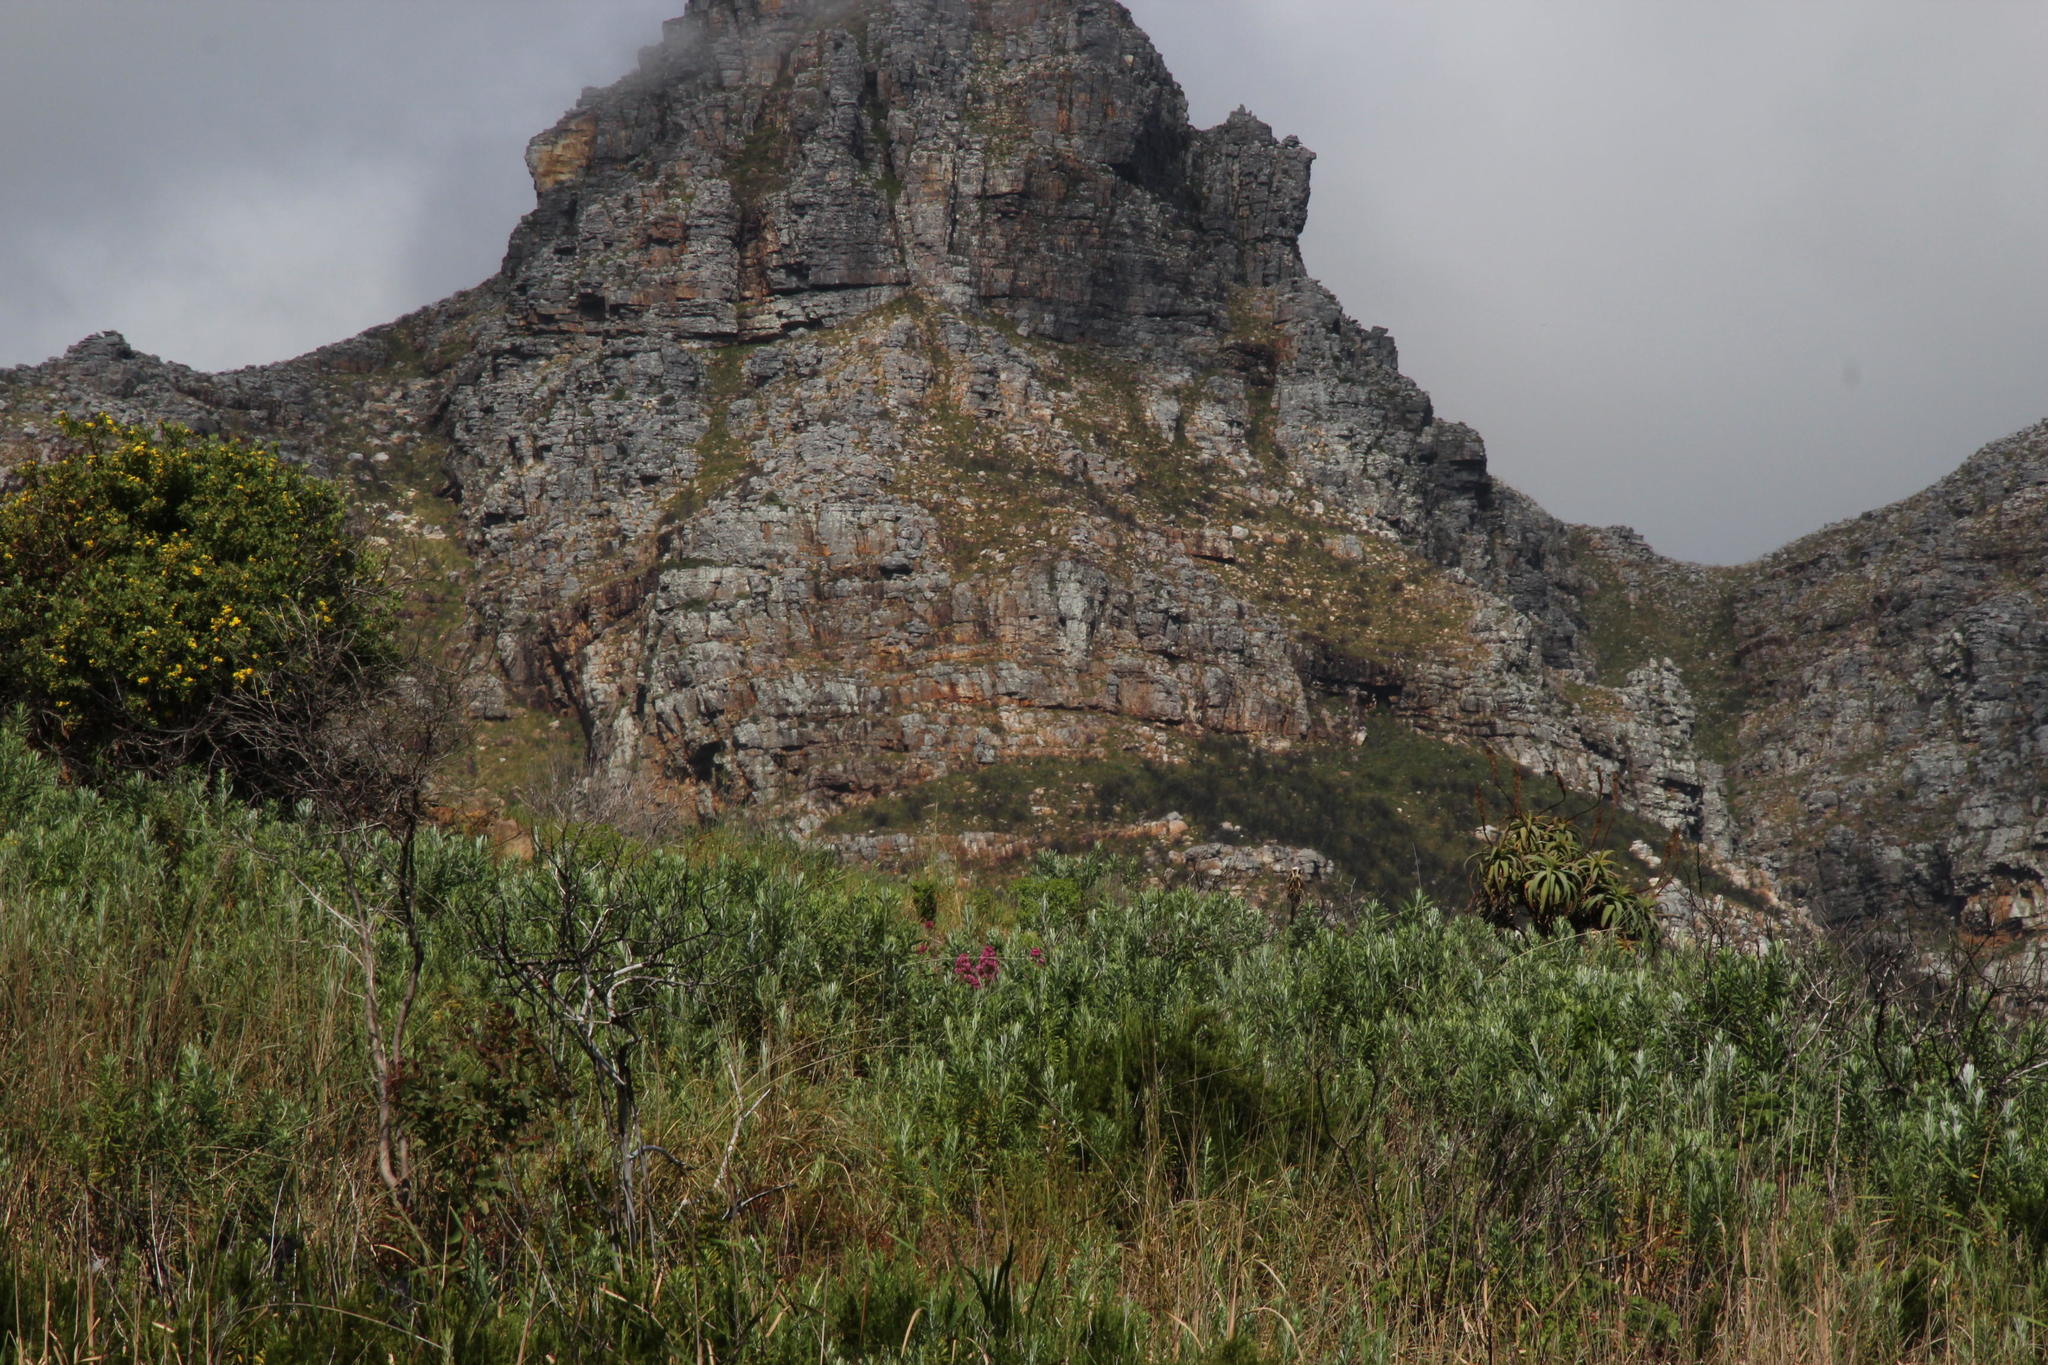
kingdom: Plantae
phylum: Tracheophyta
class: Magnoliopsida
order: Dipsacales
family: Caprifoliaceae
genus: Centranthus
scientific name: Centranthus ruber
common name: Red valerian
